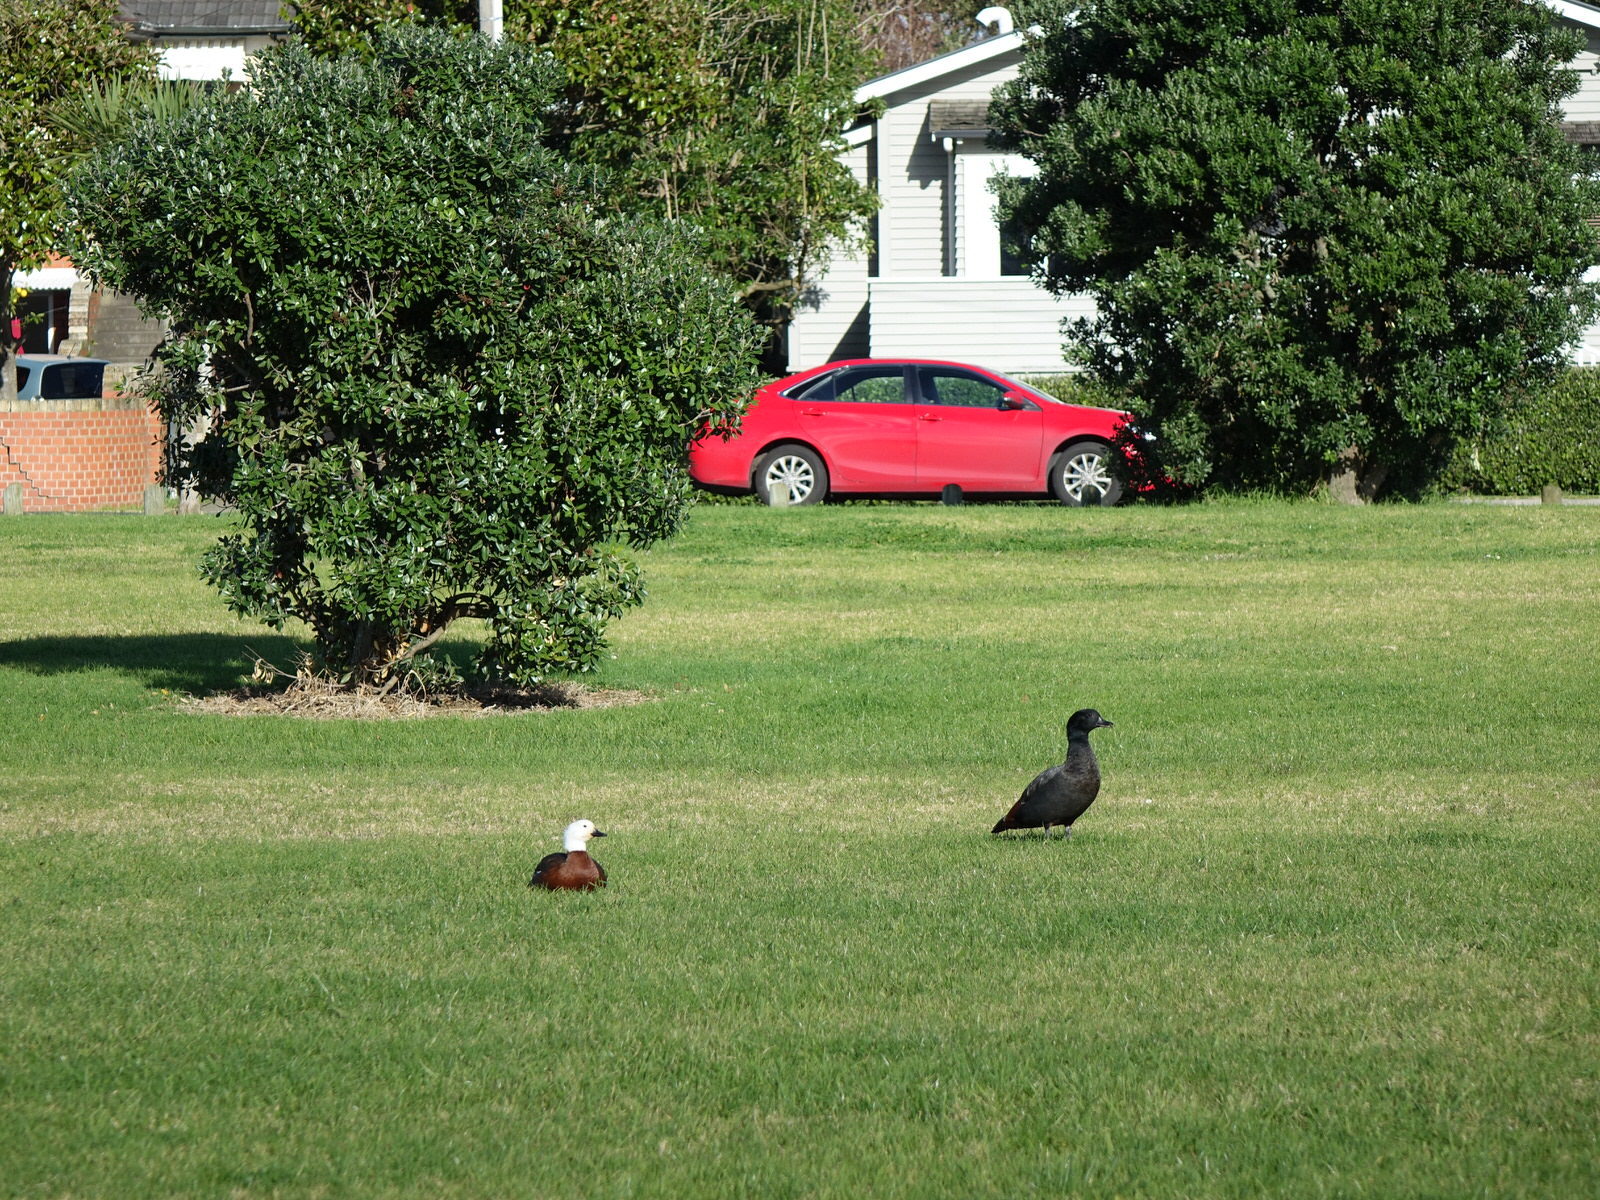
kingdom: Animalia
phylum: Chordata
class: Aves
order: Anseriformes
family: Anatidae
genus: Tadorna
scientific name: Tadorna variegata
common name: Paradise shelduck
